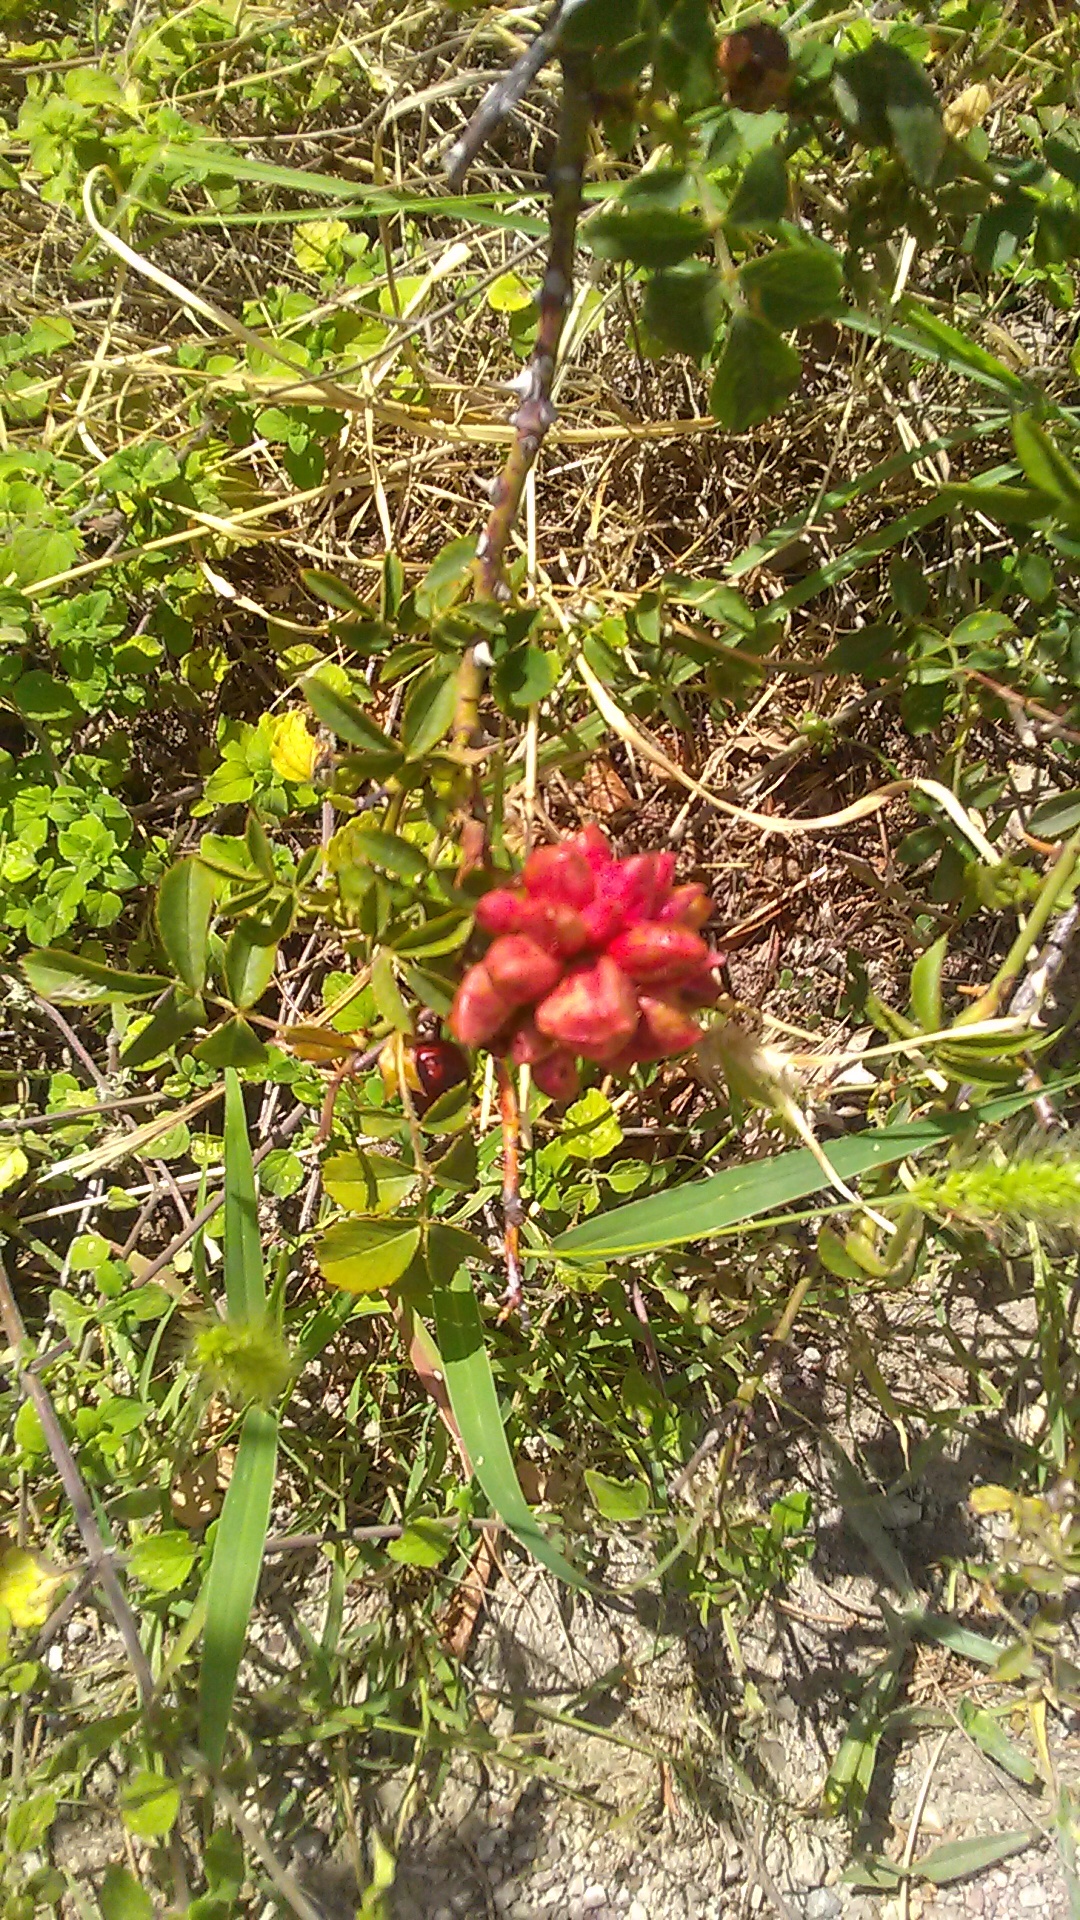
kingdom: Plantae
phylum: Tracheophyta
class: Magnoliopsida
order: Rosales
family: Rosaceae
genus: Rosa
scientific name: Rosa
